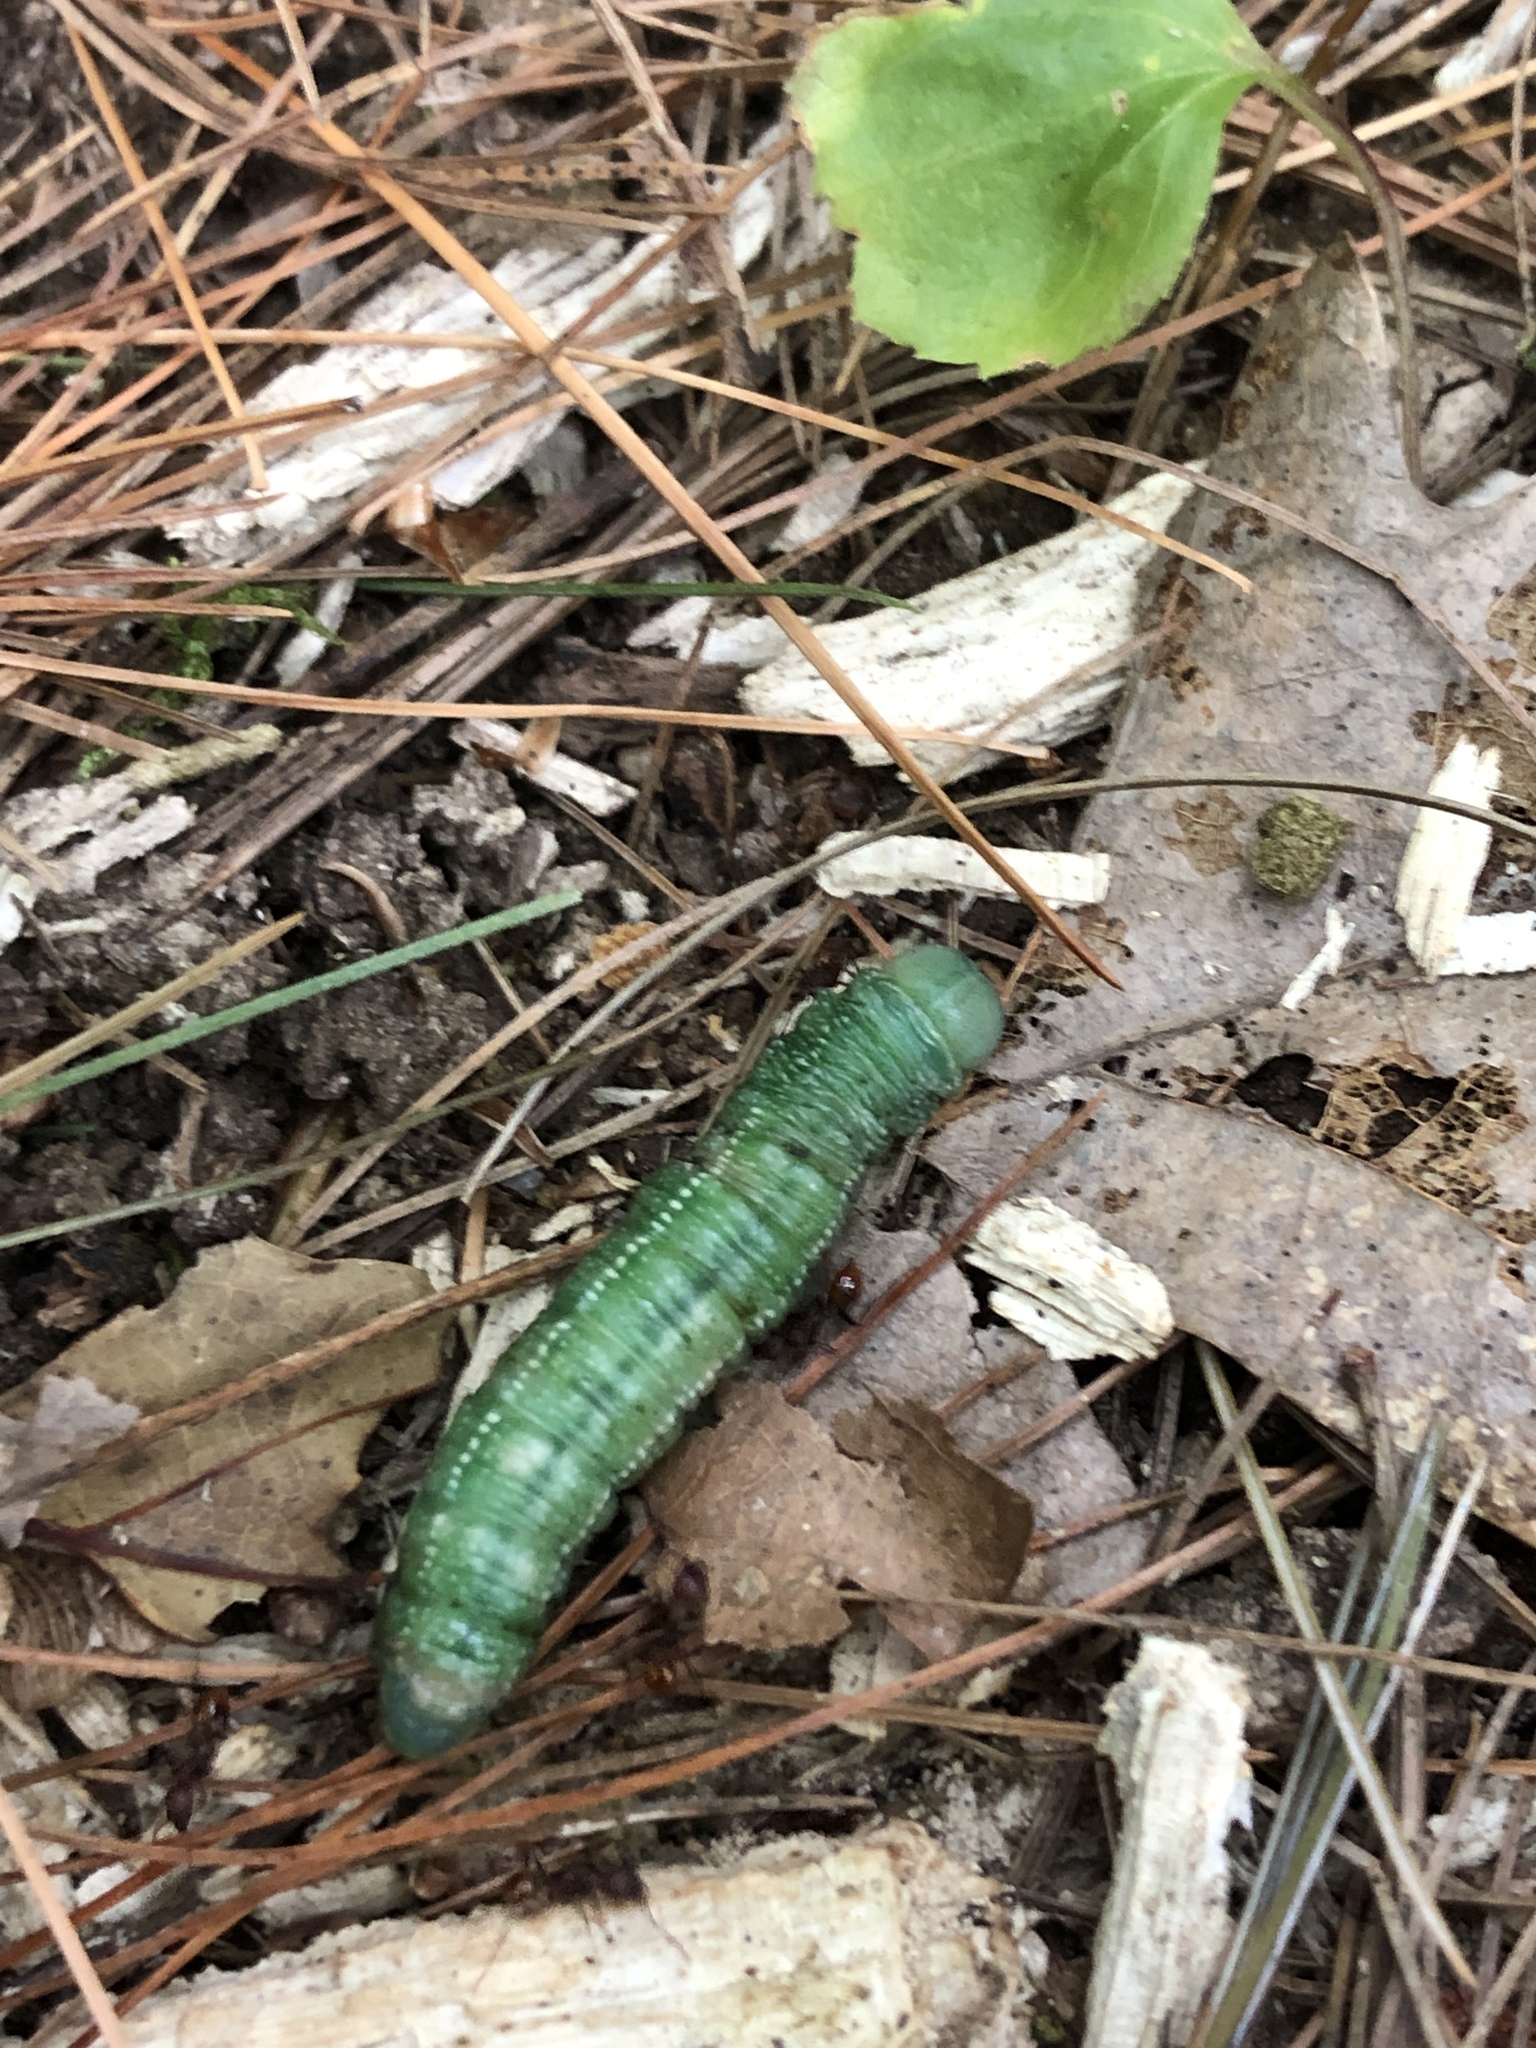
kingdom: Animalia
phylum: Arthropoda
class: Insecta
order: Lepidoptera
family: Notodontidae
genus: Nadata
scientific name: Nadata gibbosa
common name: White-dotted prominent
